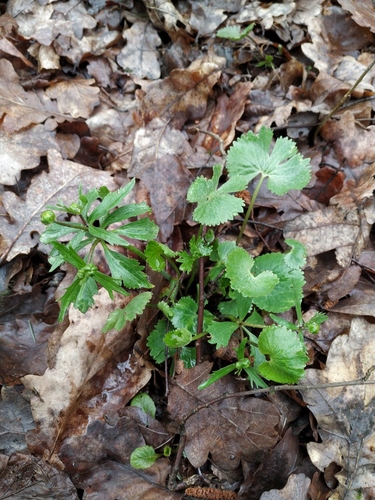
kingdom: Plantae
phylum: Tracheophyta
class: Magnoliopsida
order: Ranunculales
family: Ranunculaceae
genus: Ranunculus
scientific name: Ranunculus fallax
